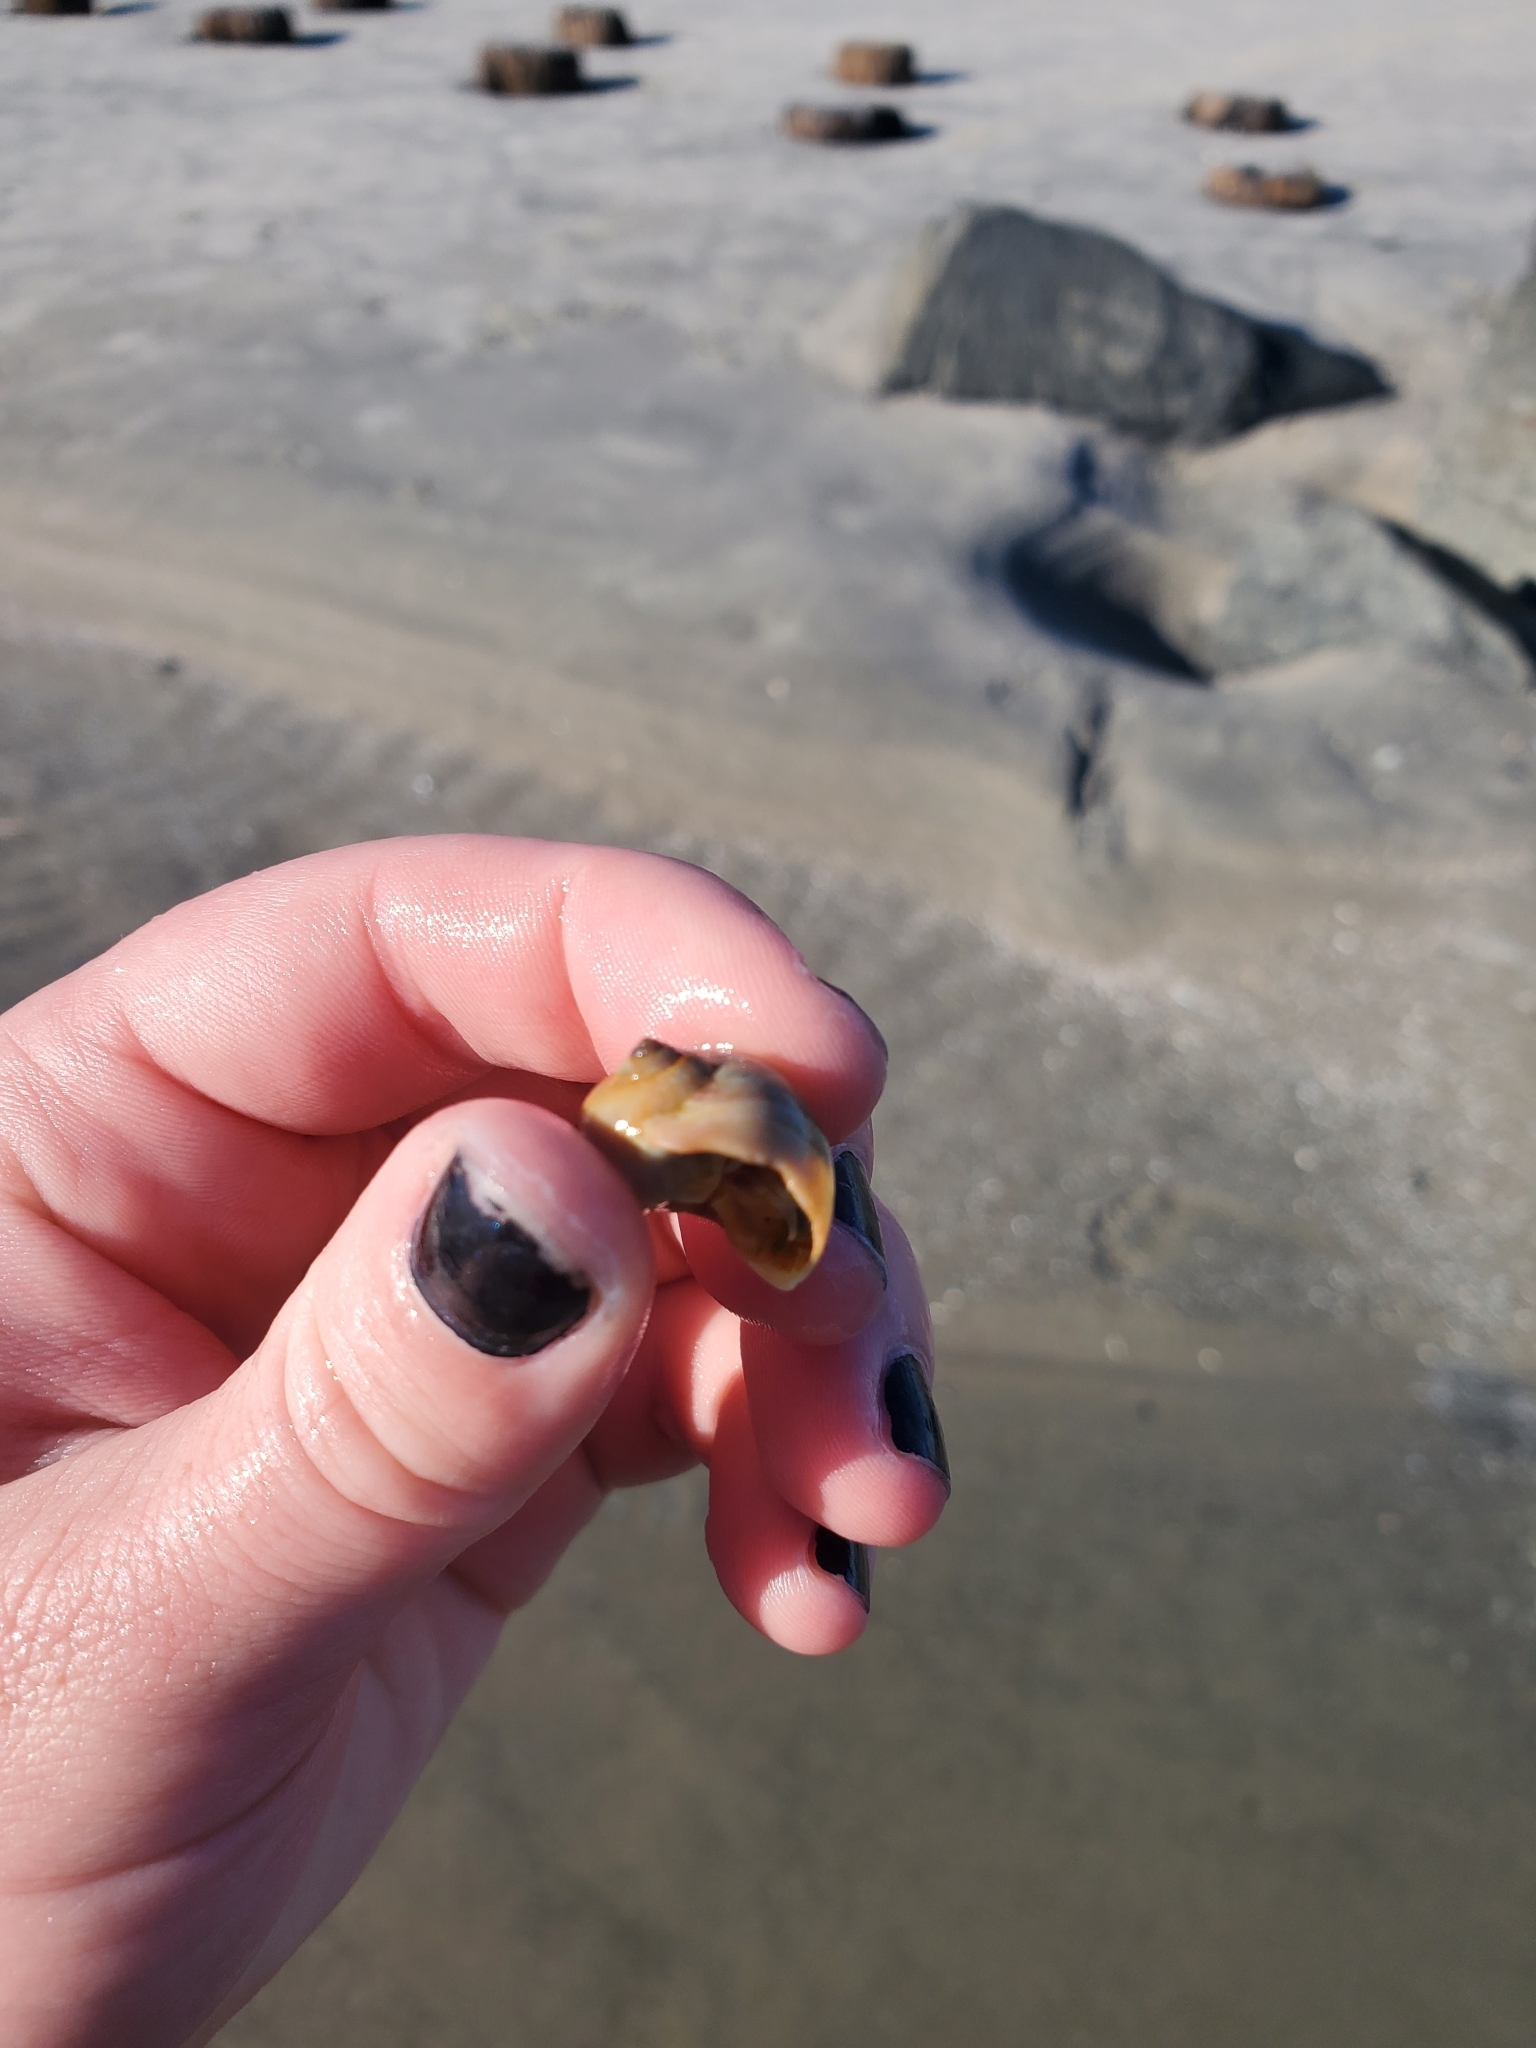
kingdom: Animalia
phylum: Mollusca
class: Gastropoda
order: Littorinimorpha
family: Naticidae
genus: Euspira
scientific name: Euspira heros
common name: Common northern moonsnail
